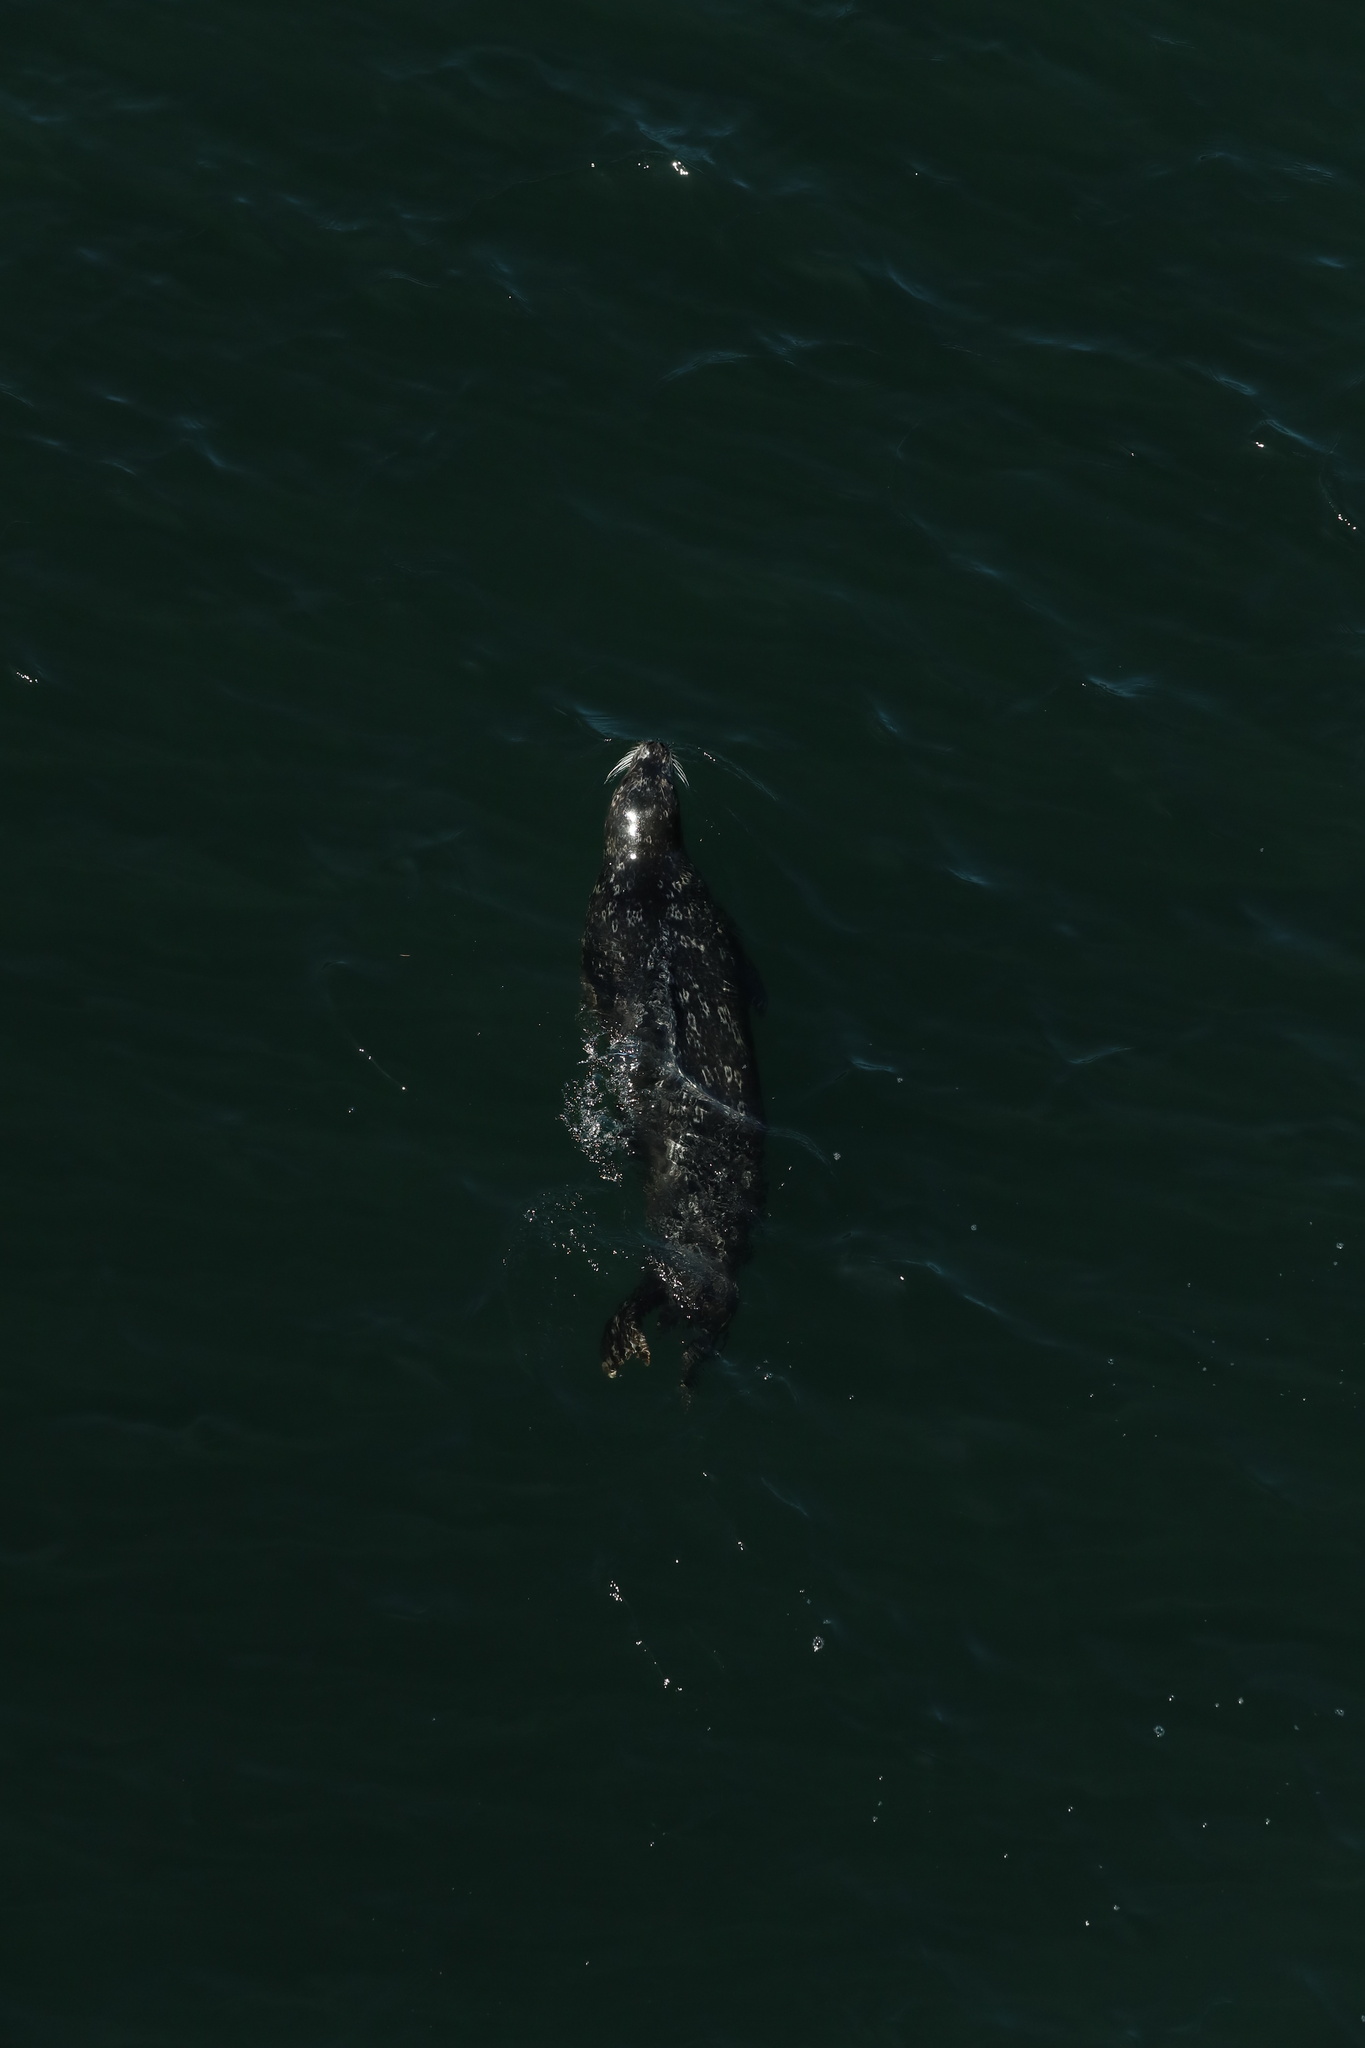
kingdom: Animalia
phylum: Chordata
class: Mammalia
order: Carnivora
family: Phocidae
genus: Phoca
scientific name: Phoca vitulina
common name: Harbor seal
